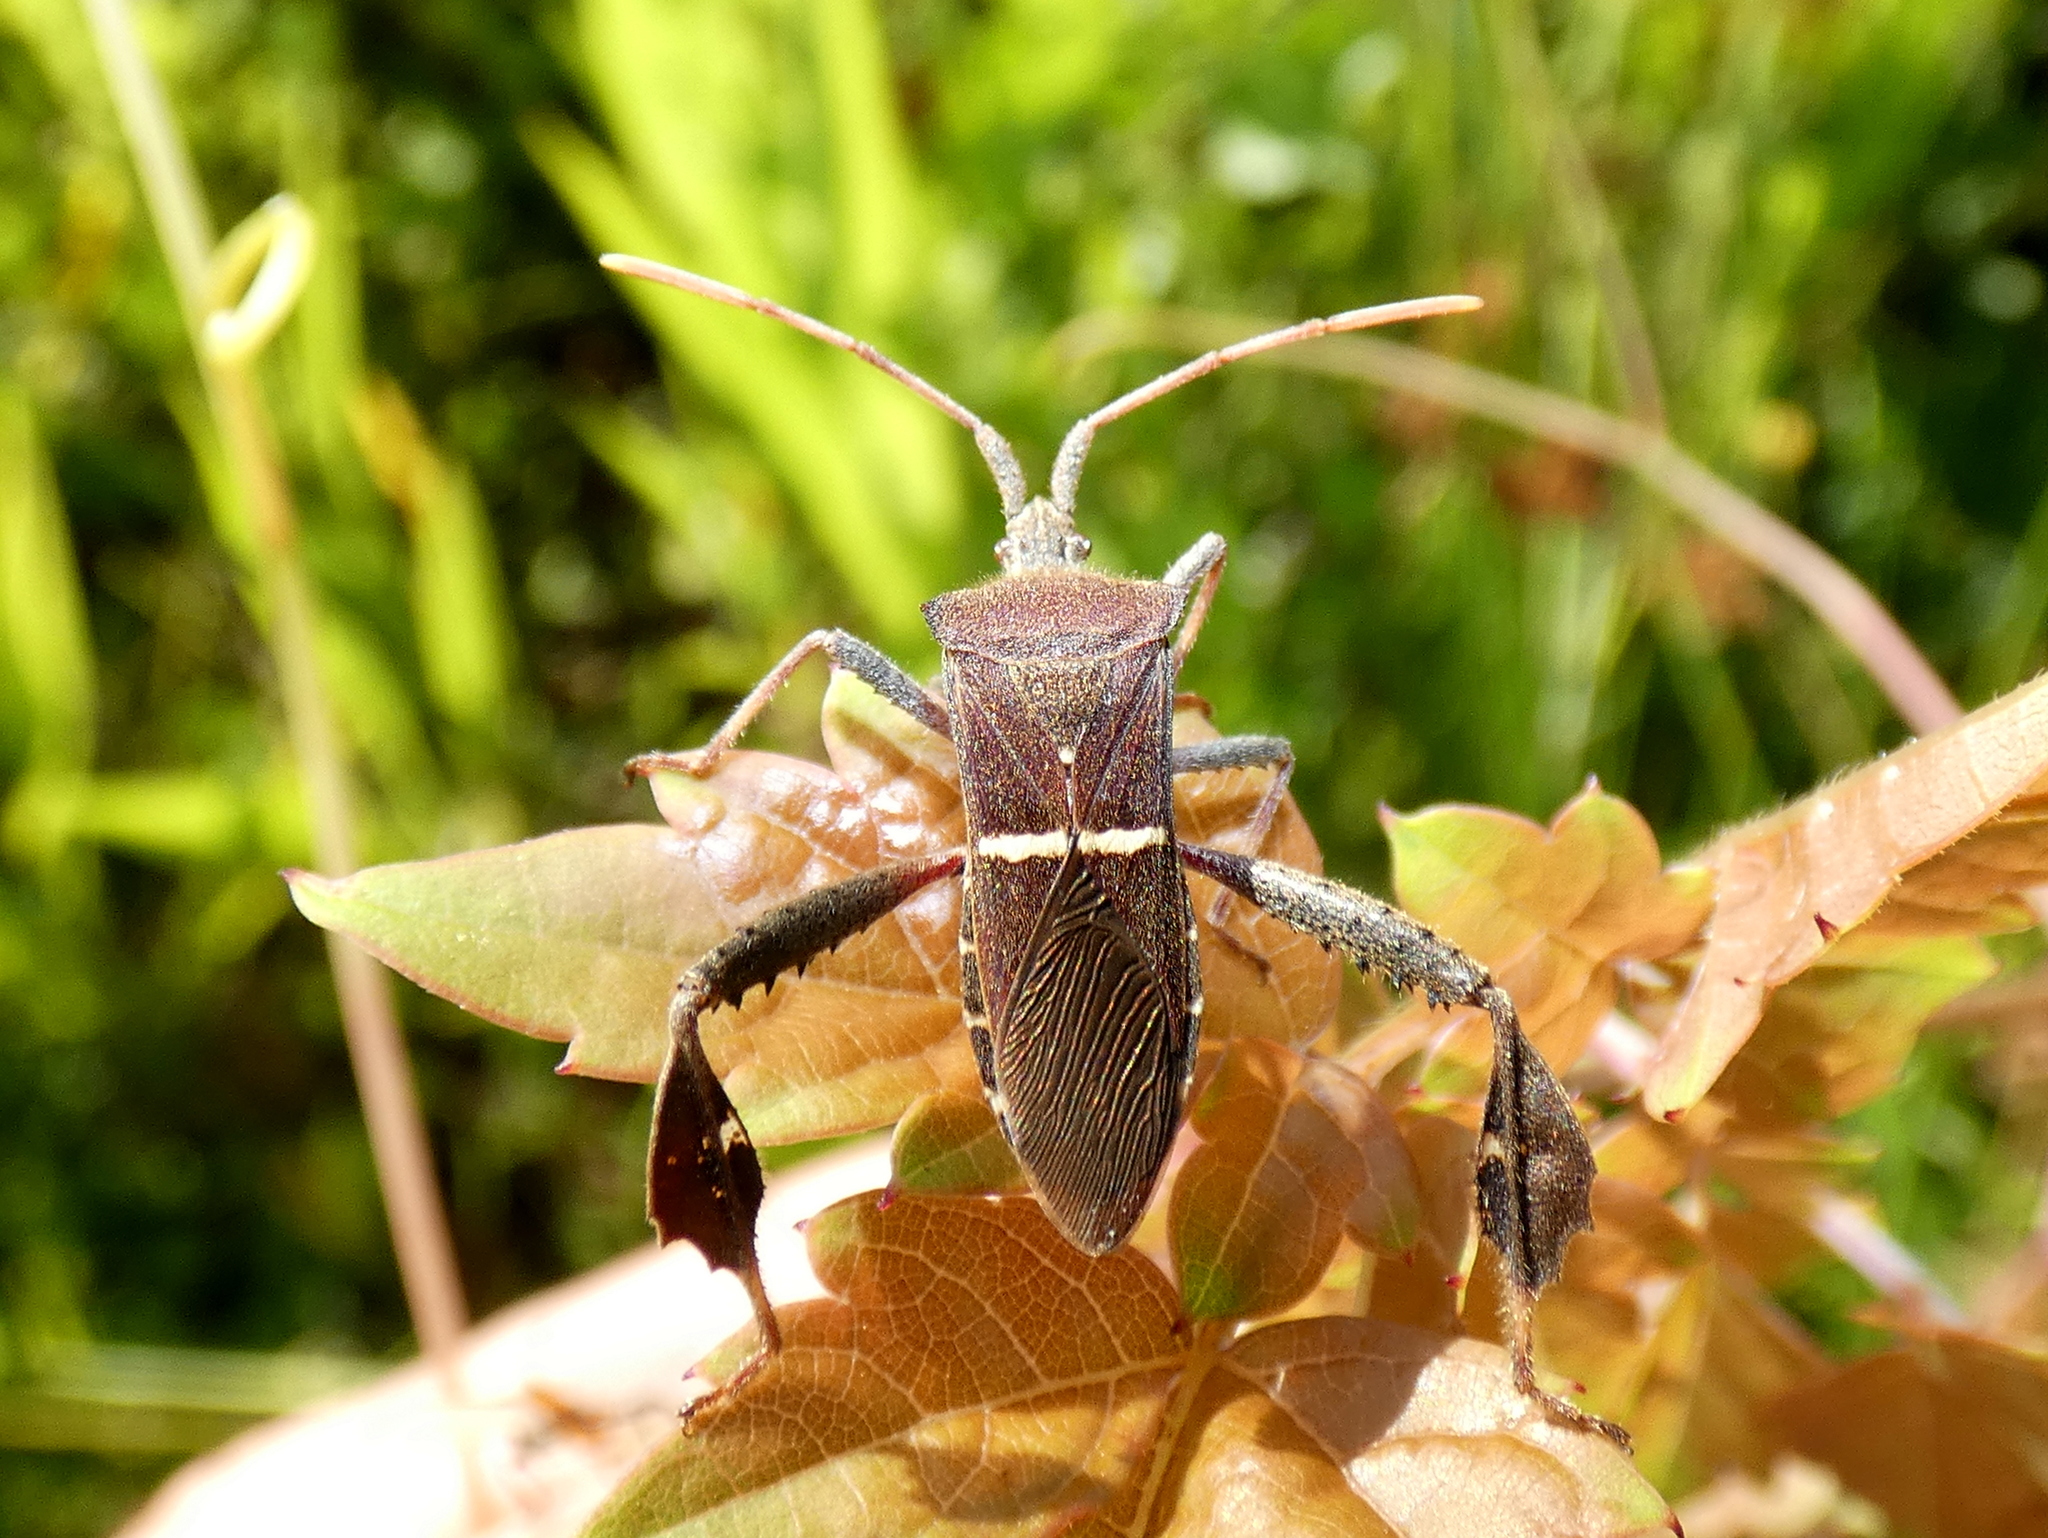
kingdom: Animalia
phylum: Arthropoda
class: Insecta
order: Hemiptera
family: Coreidae
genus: Leptoglossus
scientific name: Leptoglossus phyllopus
